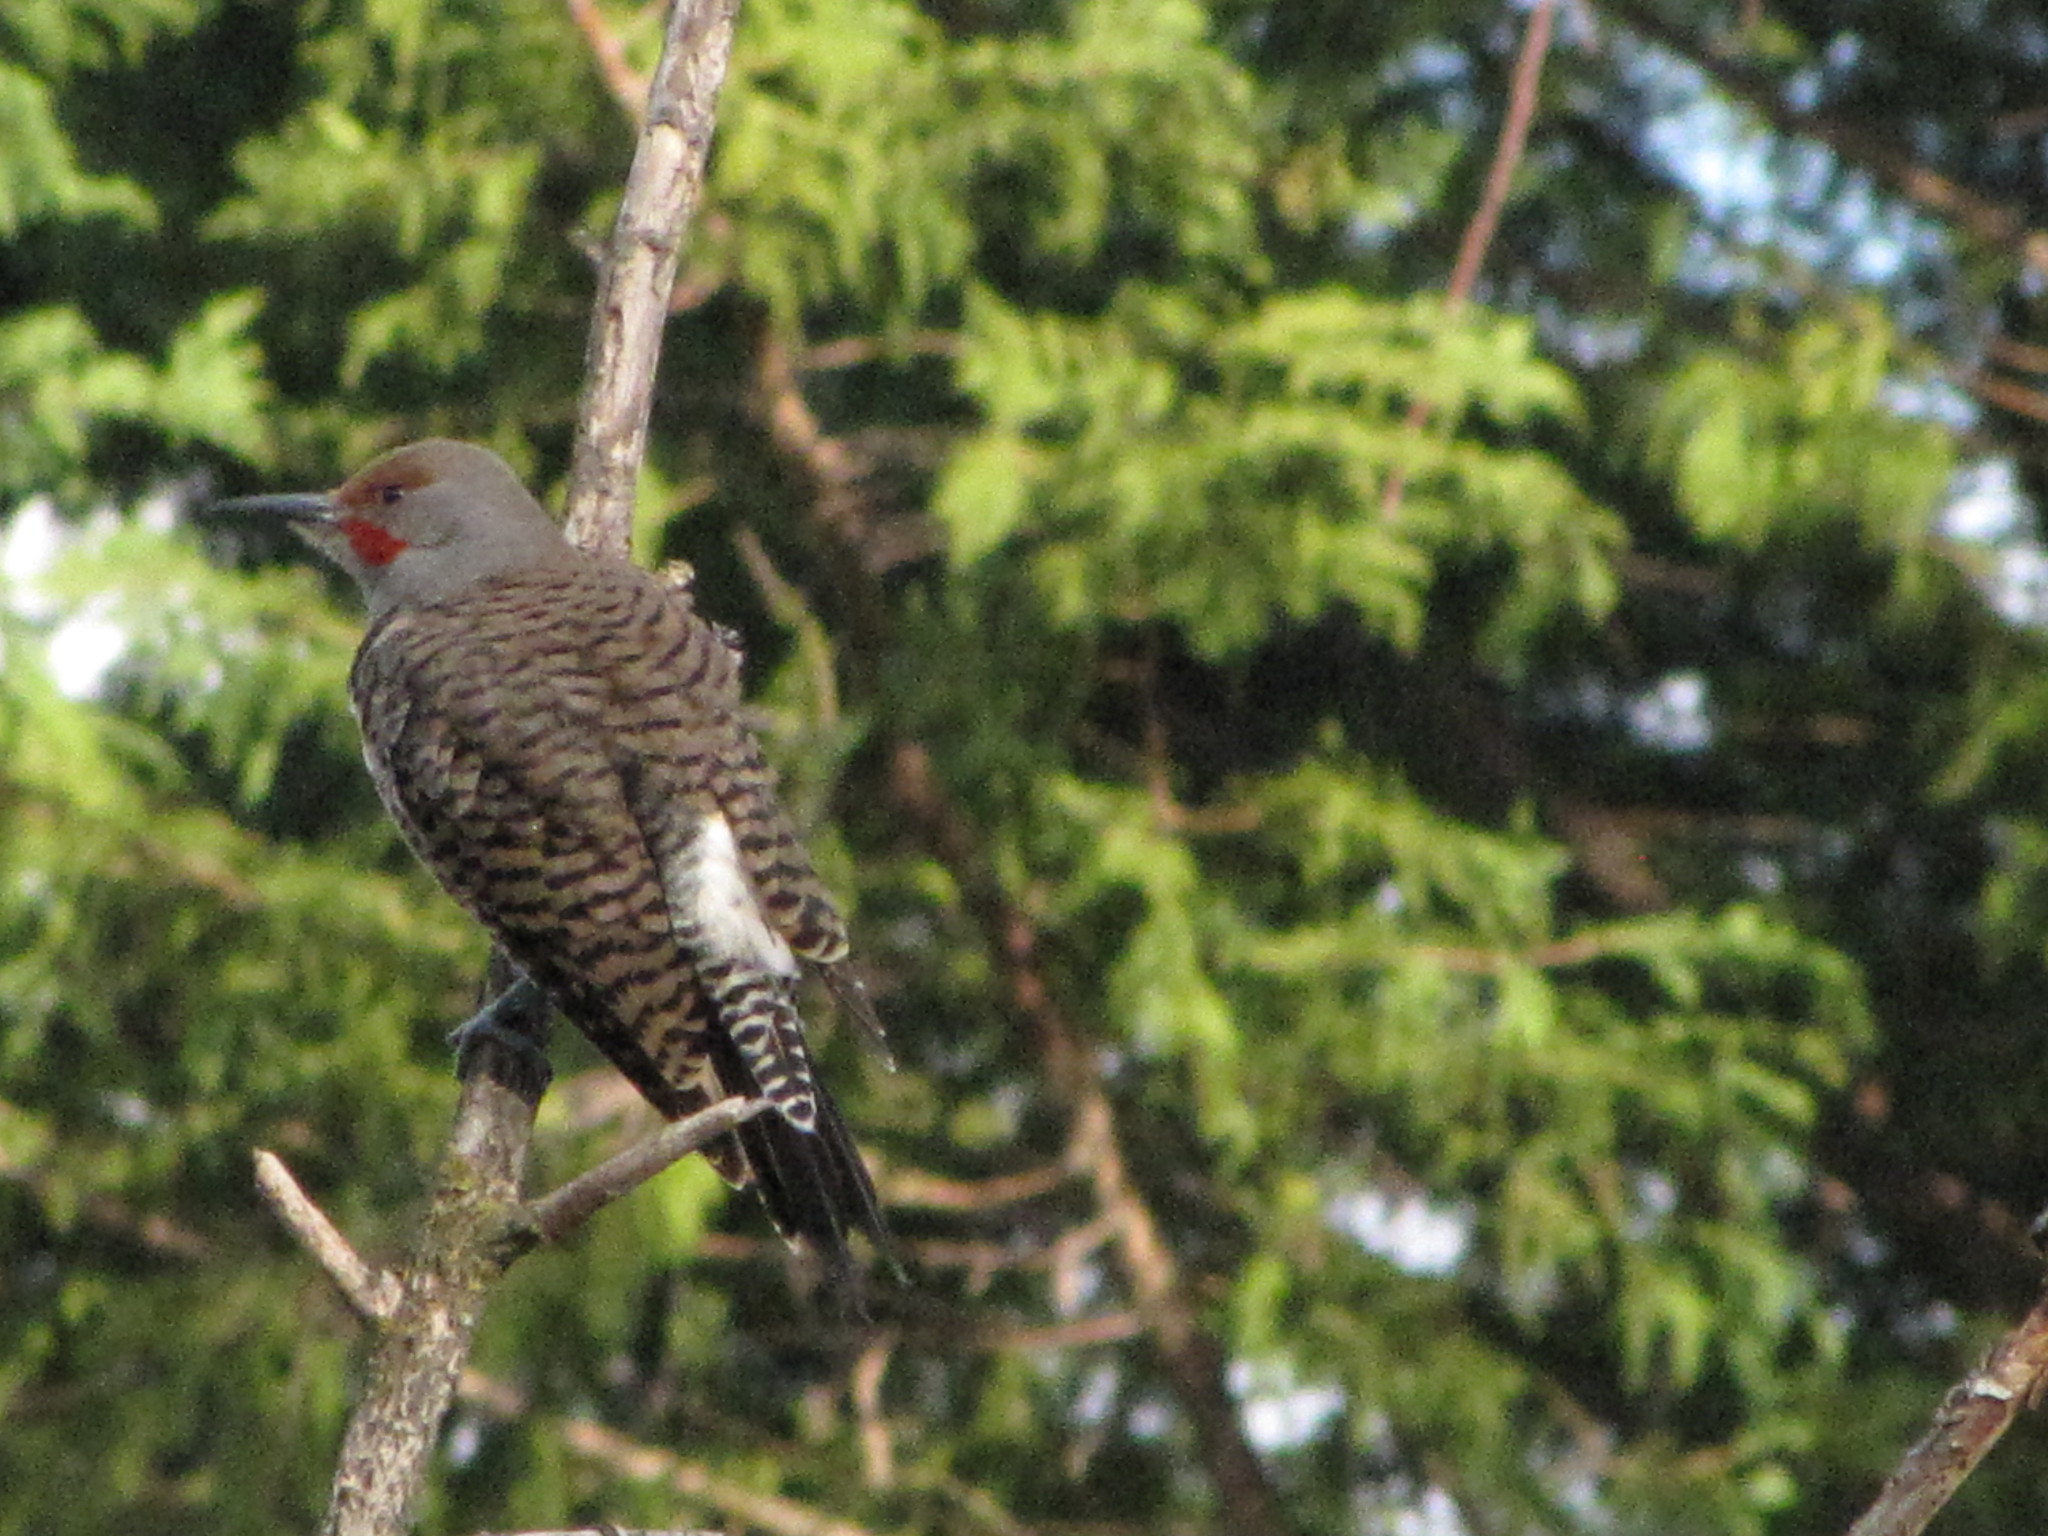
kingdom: Animalia
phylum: Chordata
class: Aves
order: Piciformes
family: Picidae
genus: Colaptes
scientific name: Colaptes auratus
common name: Northern flicker
